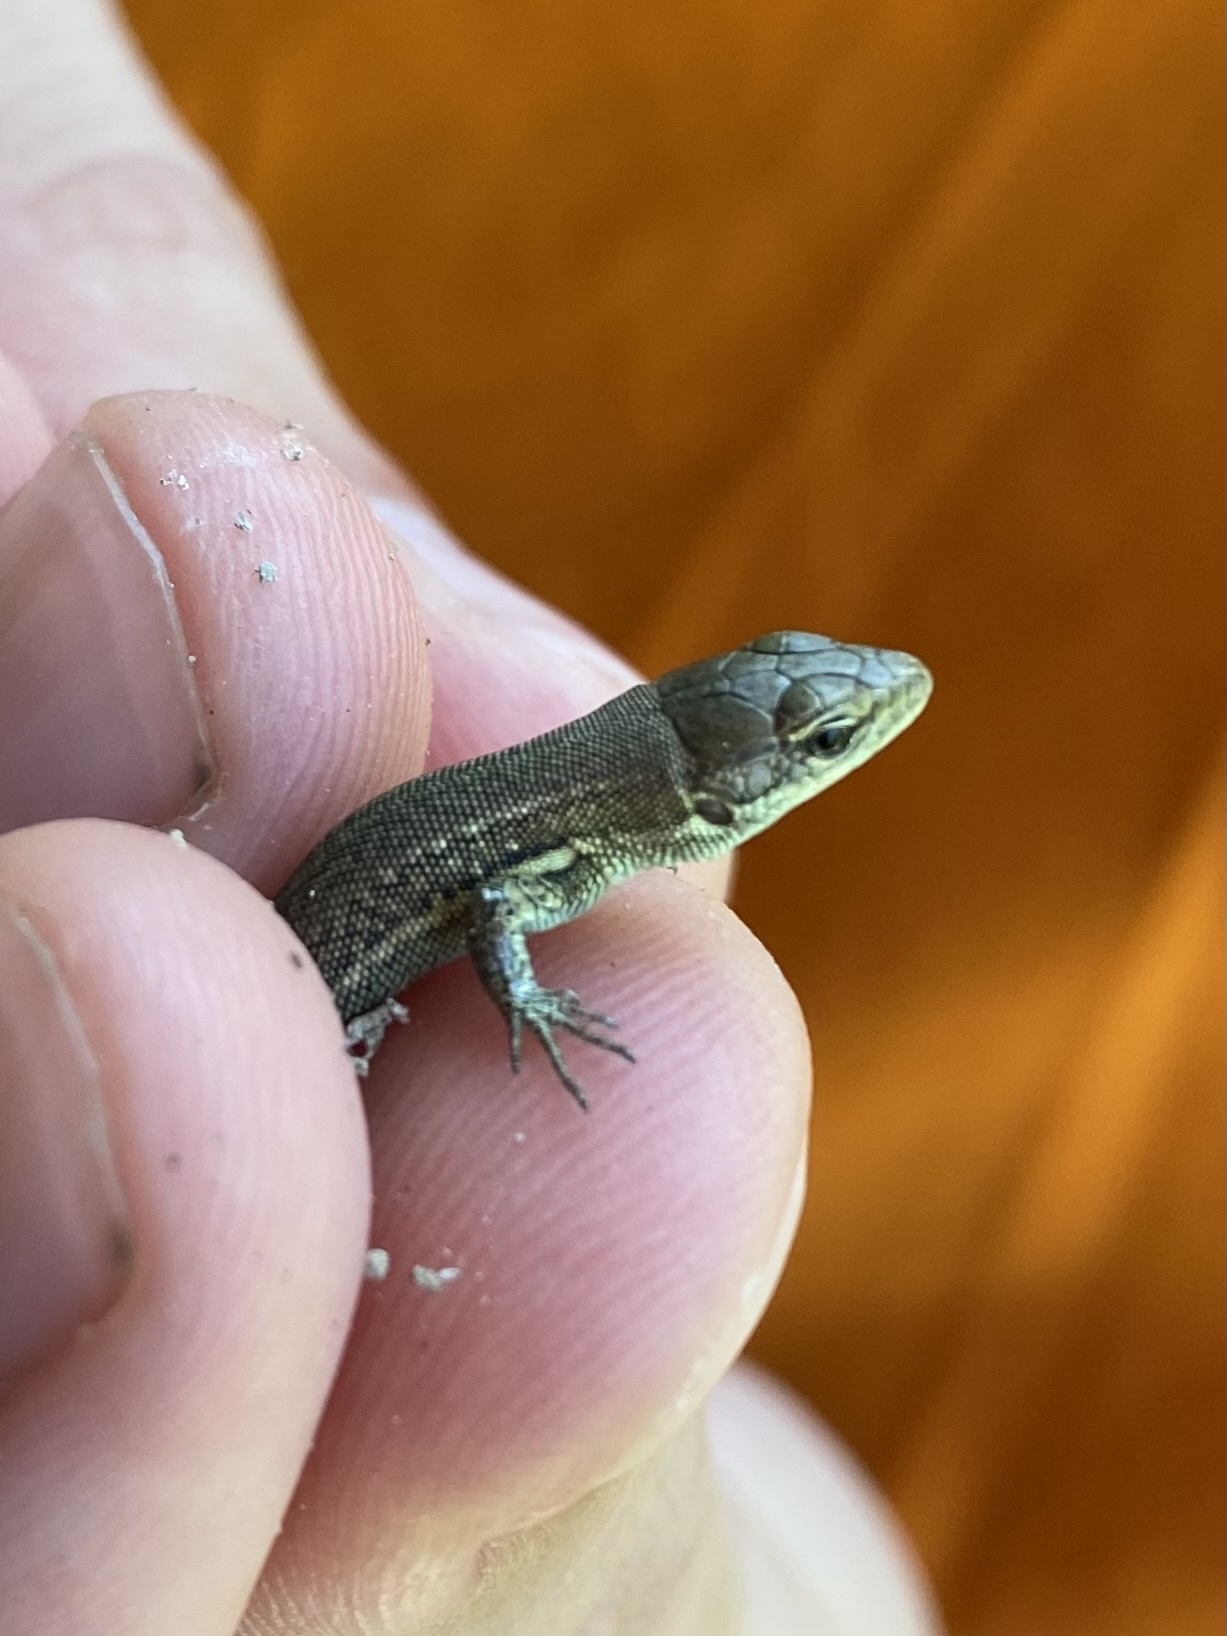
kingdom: Animalia
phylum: Chordata
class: Squamata
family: Lacertidae
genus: Darevskia
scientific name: Darevskia praticola
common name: Meadow lizard
